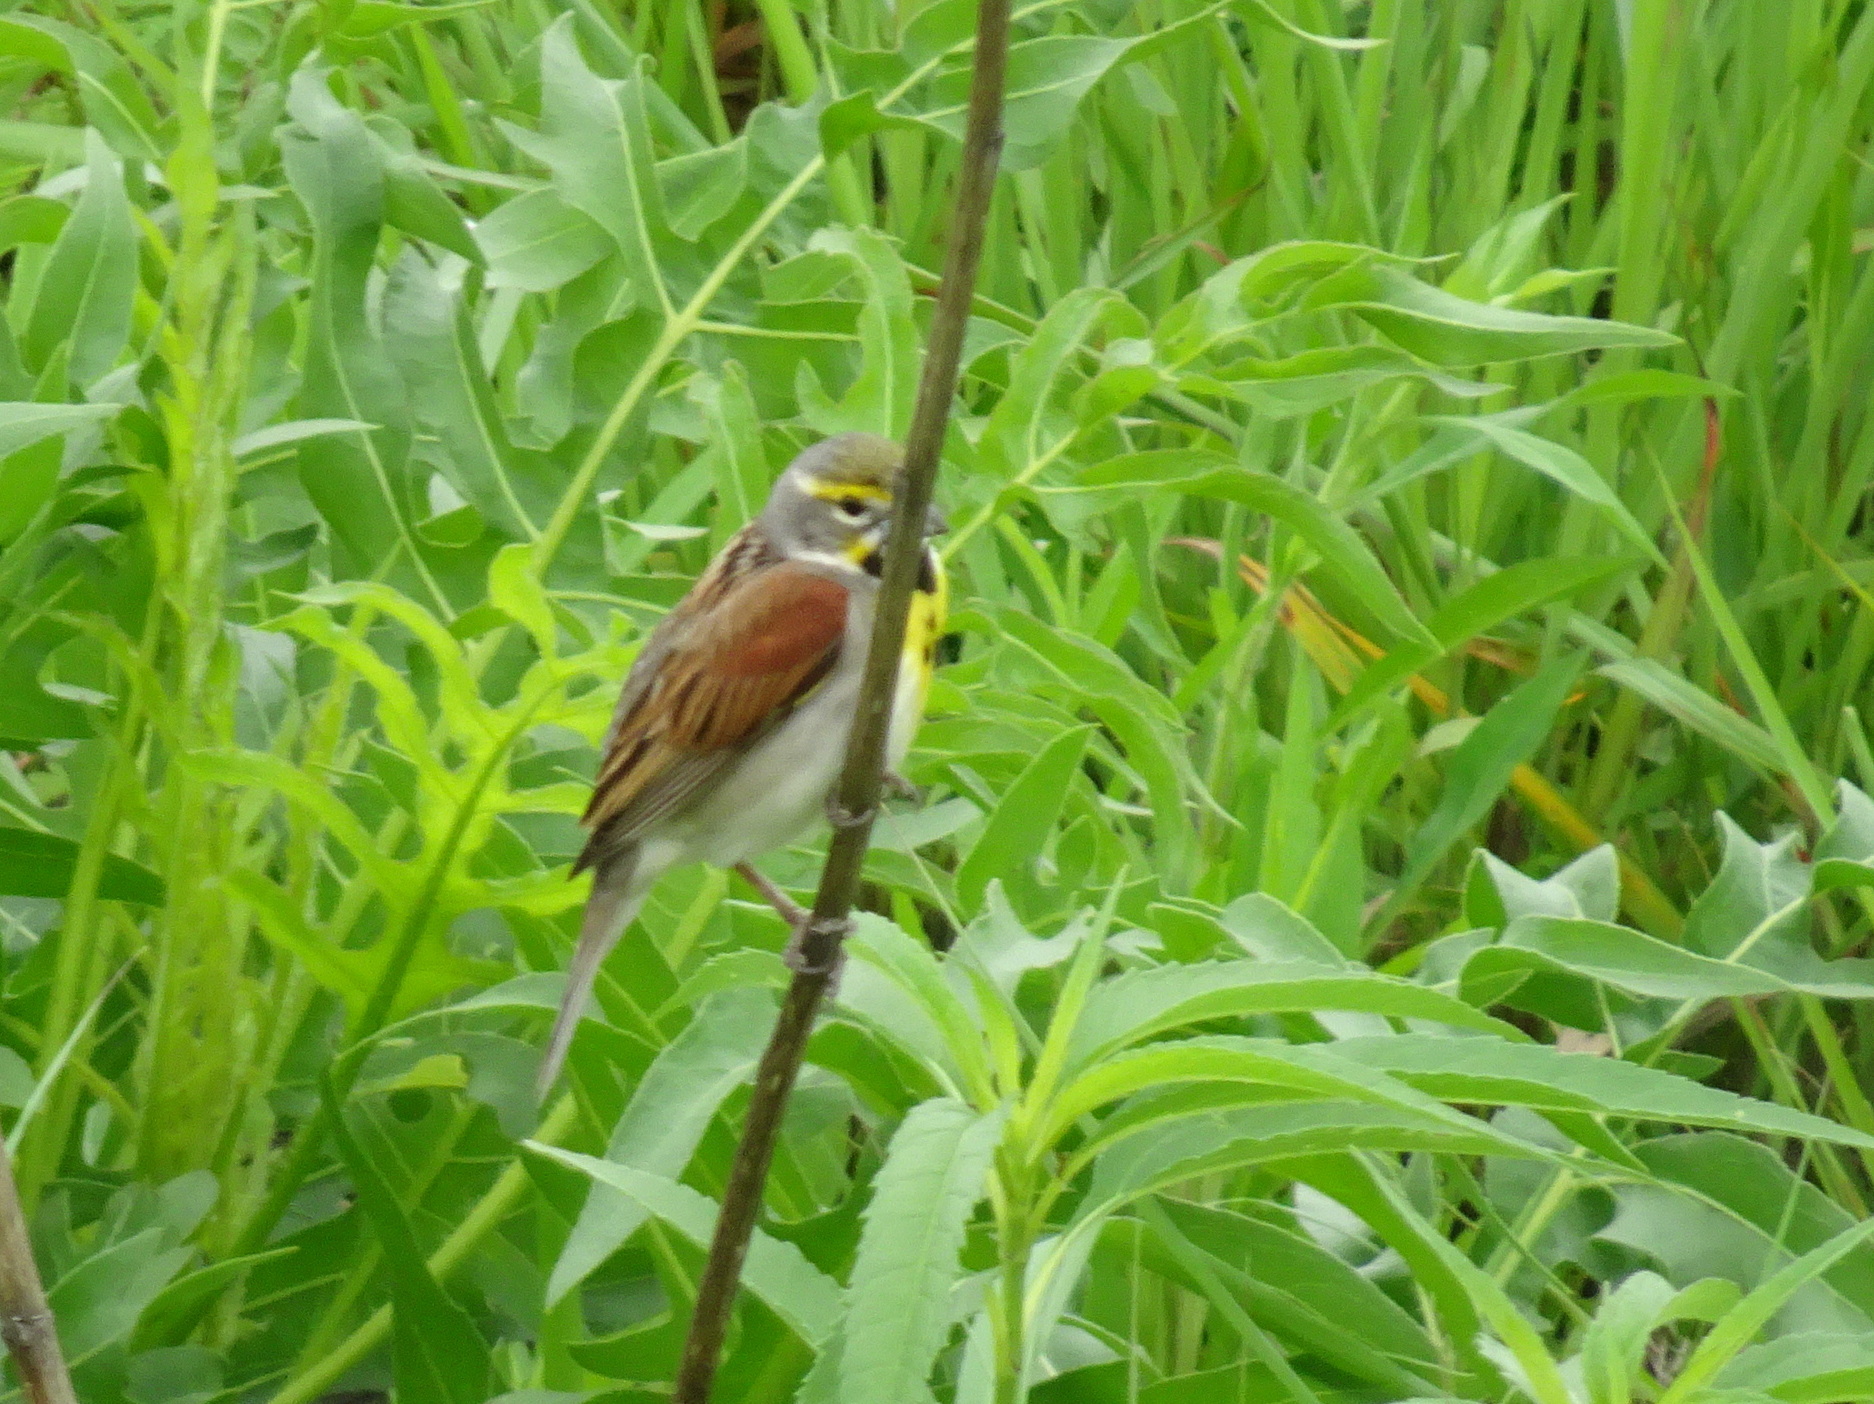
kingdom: Animalia
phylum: Chordata
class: Aves
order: Passeriformes
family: Cardinalidae
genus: Spiza
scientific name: Spiza americana
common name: Dickcissel
